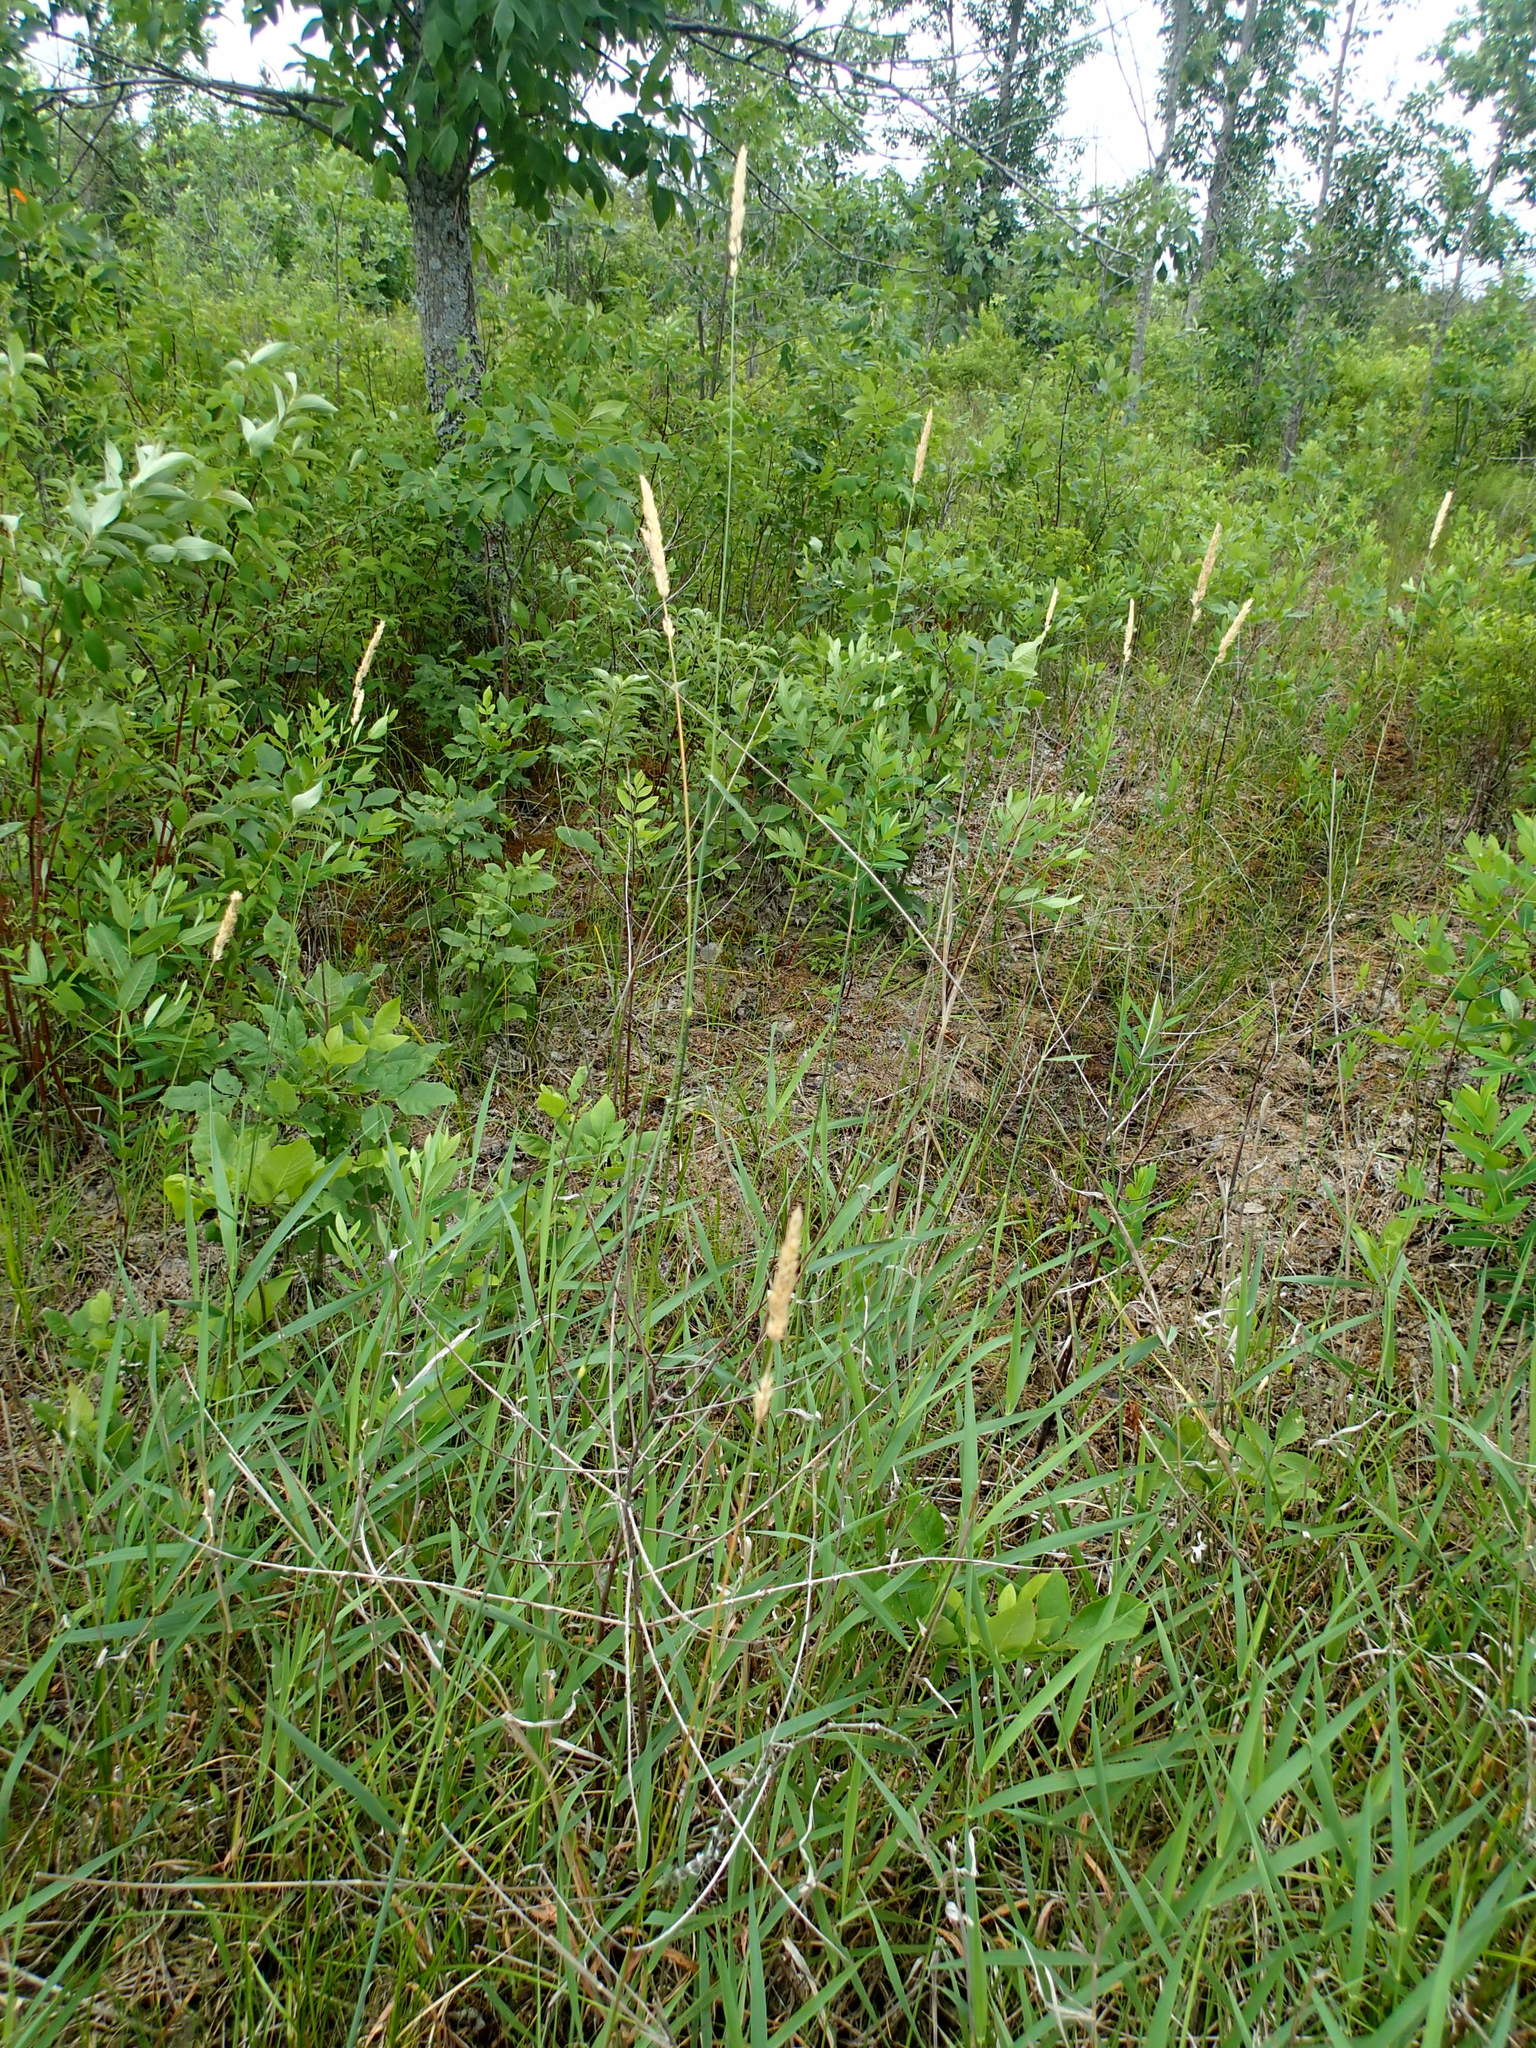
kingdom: Plantae
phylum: Tracheophyta
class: Liliopsida
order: Poales
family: Poaceae
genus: Phalaris
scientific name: Phalaris arundinacea
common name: Reed canary-grass
